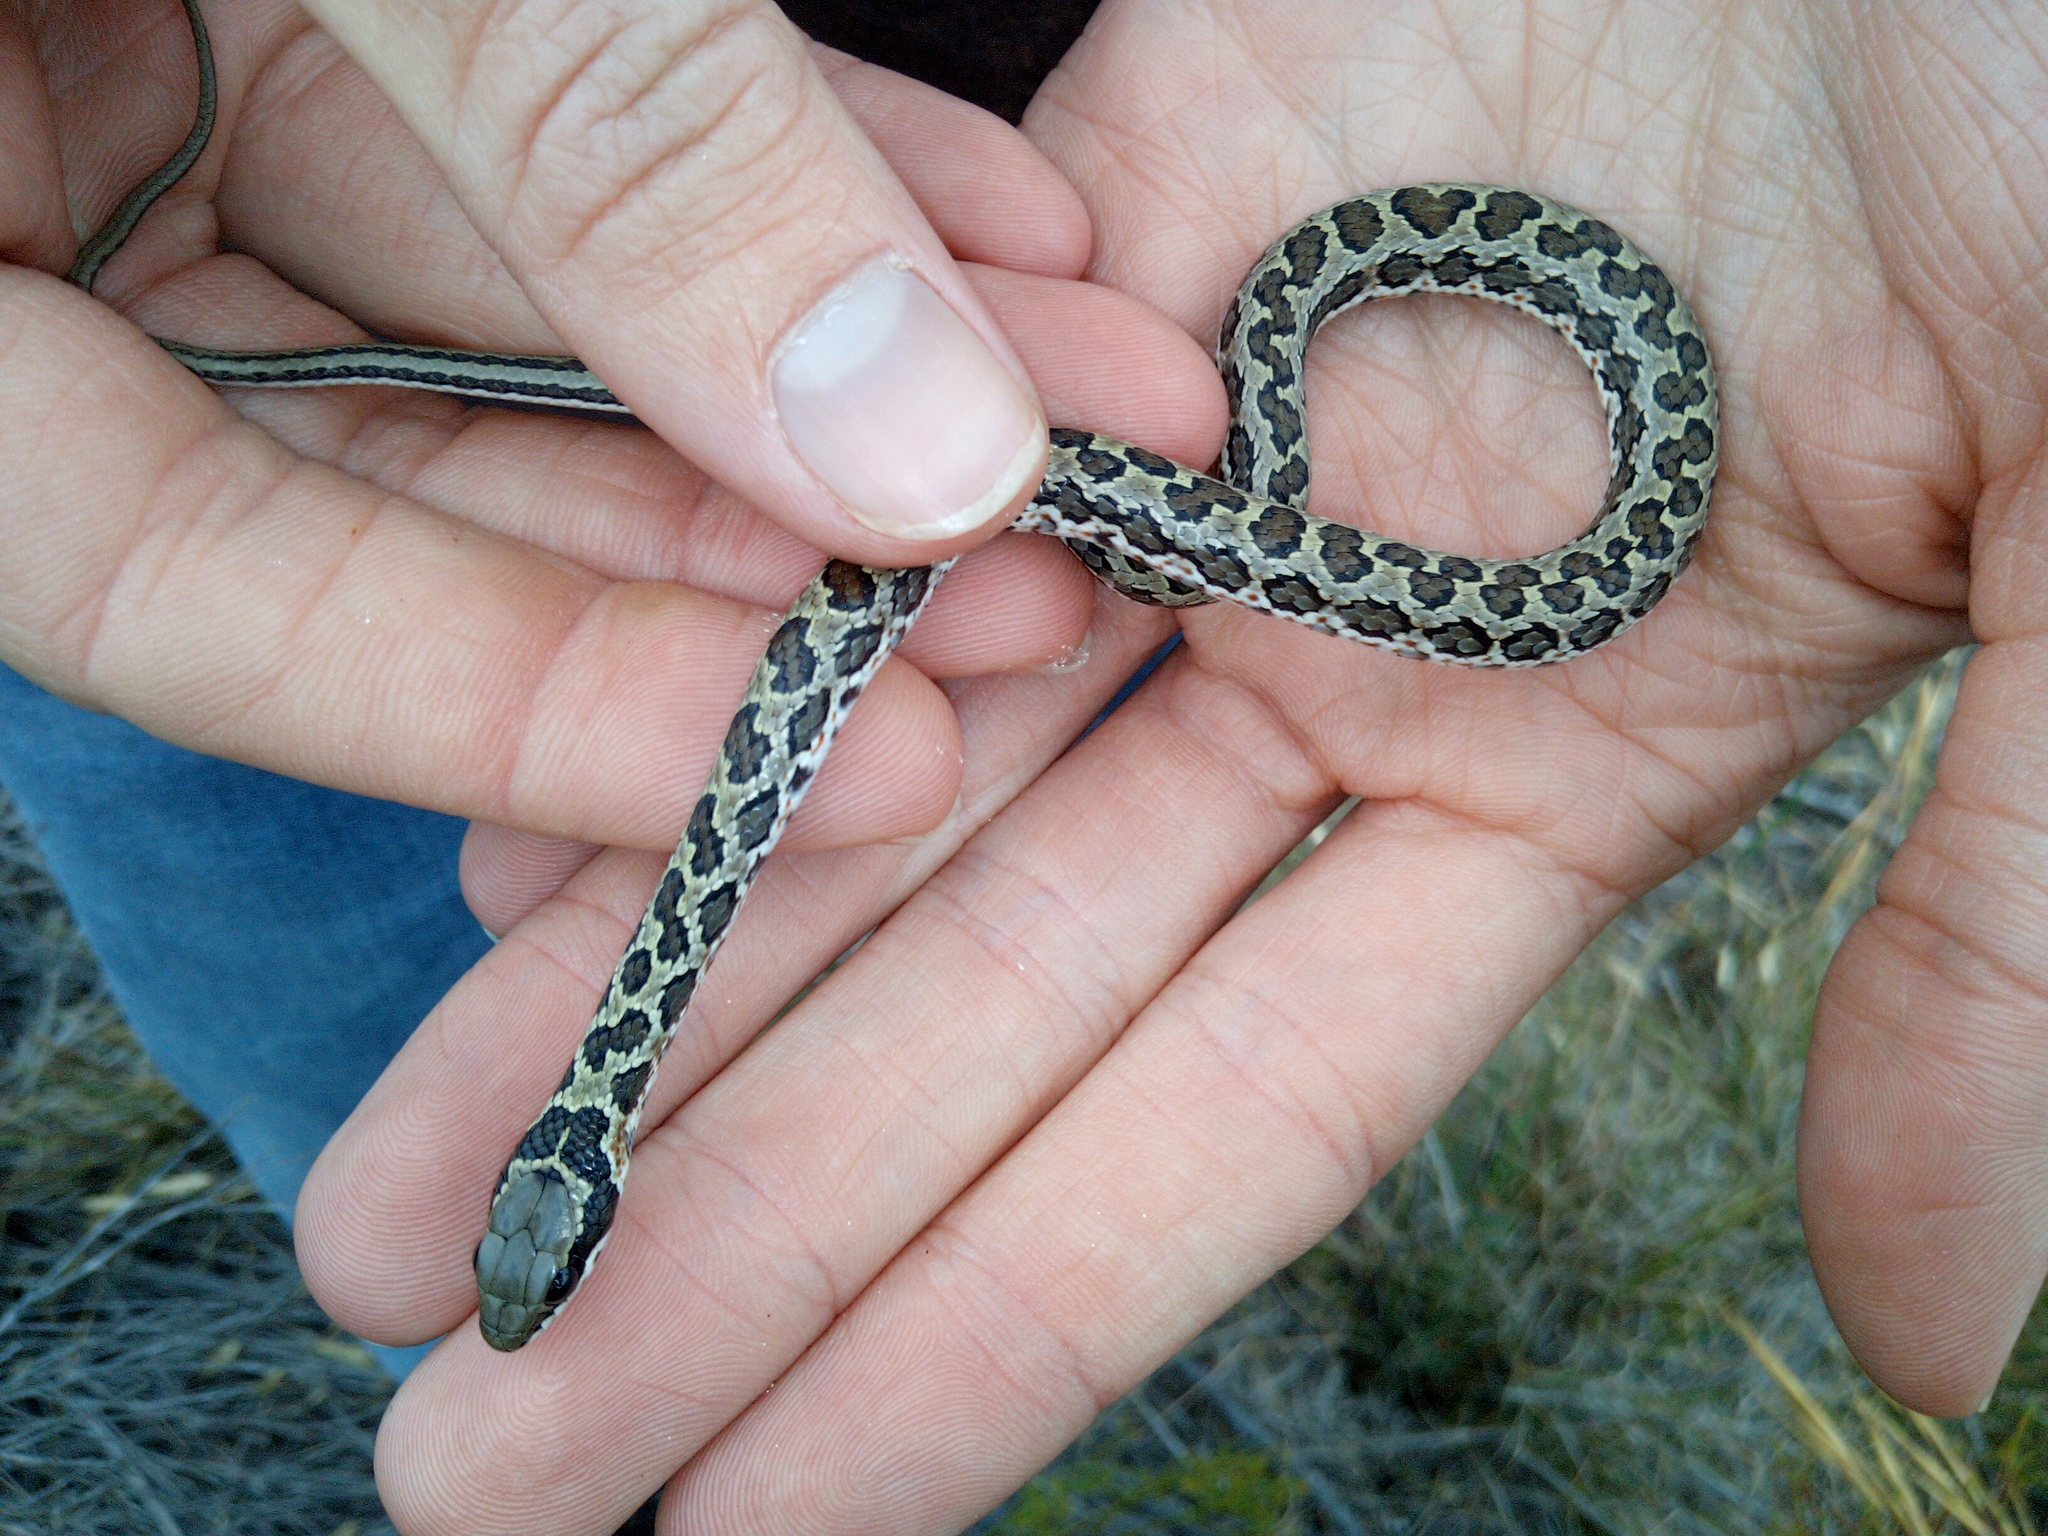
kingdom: Animalia
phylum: Chordata
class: Squamata
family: Psammophiidae
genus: Psammophylax
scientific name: Psammophylax rhombeatus
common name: Rhombic skaapsteker
